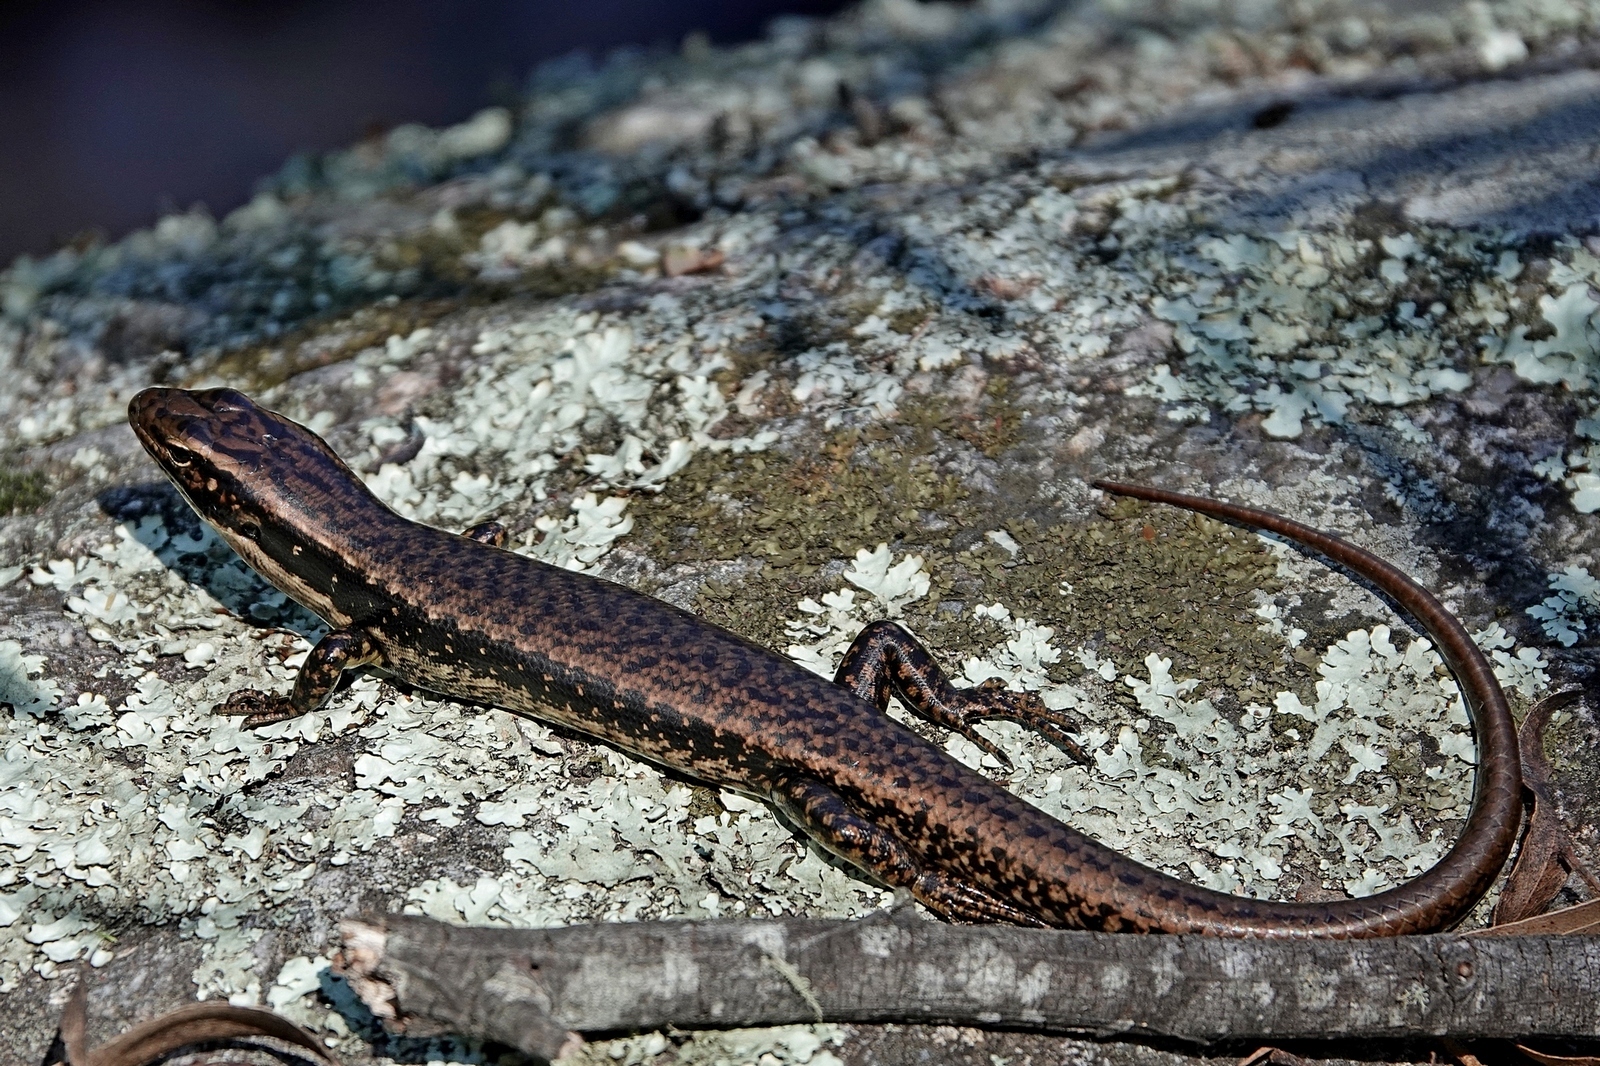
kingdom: Animalia
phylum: Chordata
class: Squamata
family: Scincidae
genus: Eulamprus
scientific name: Eulamprus heatwolei
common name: Warm-temperate water-skink
